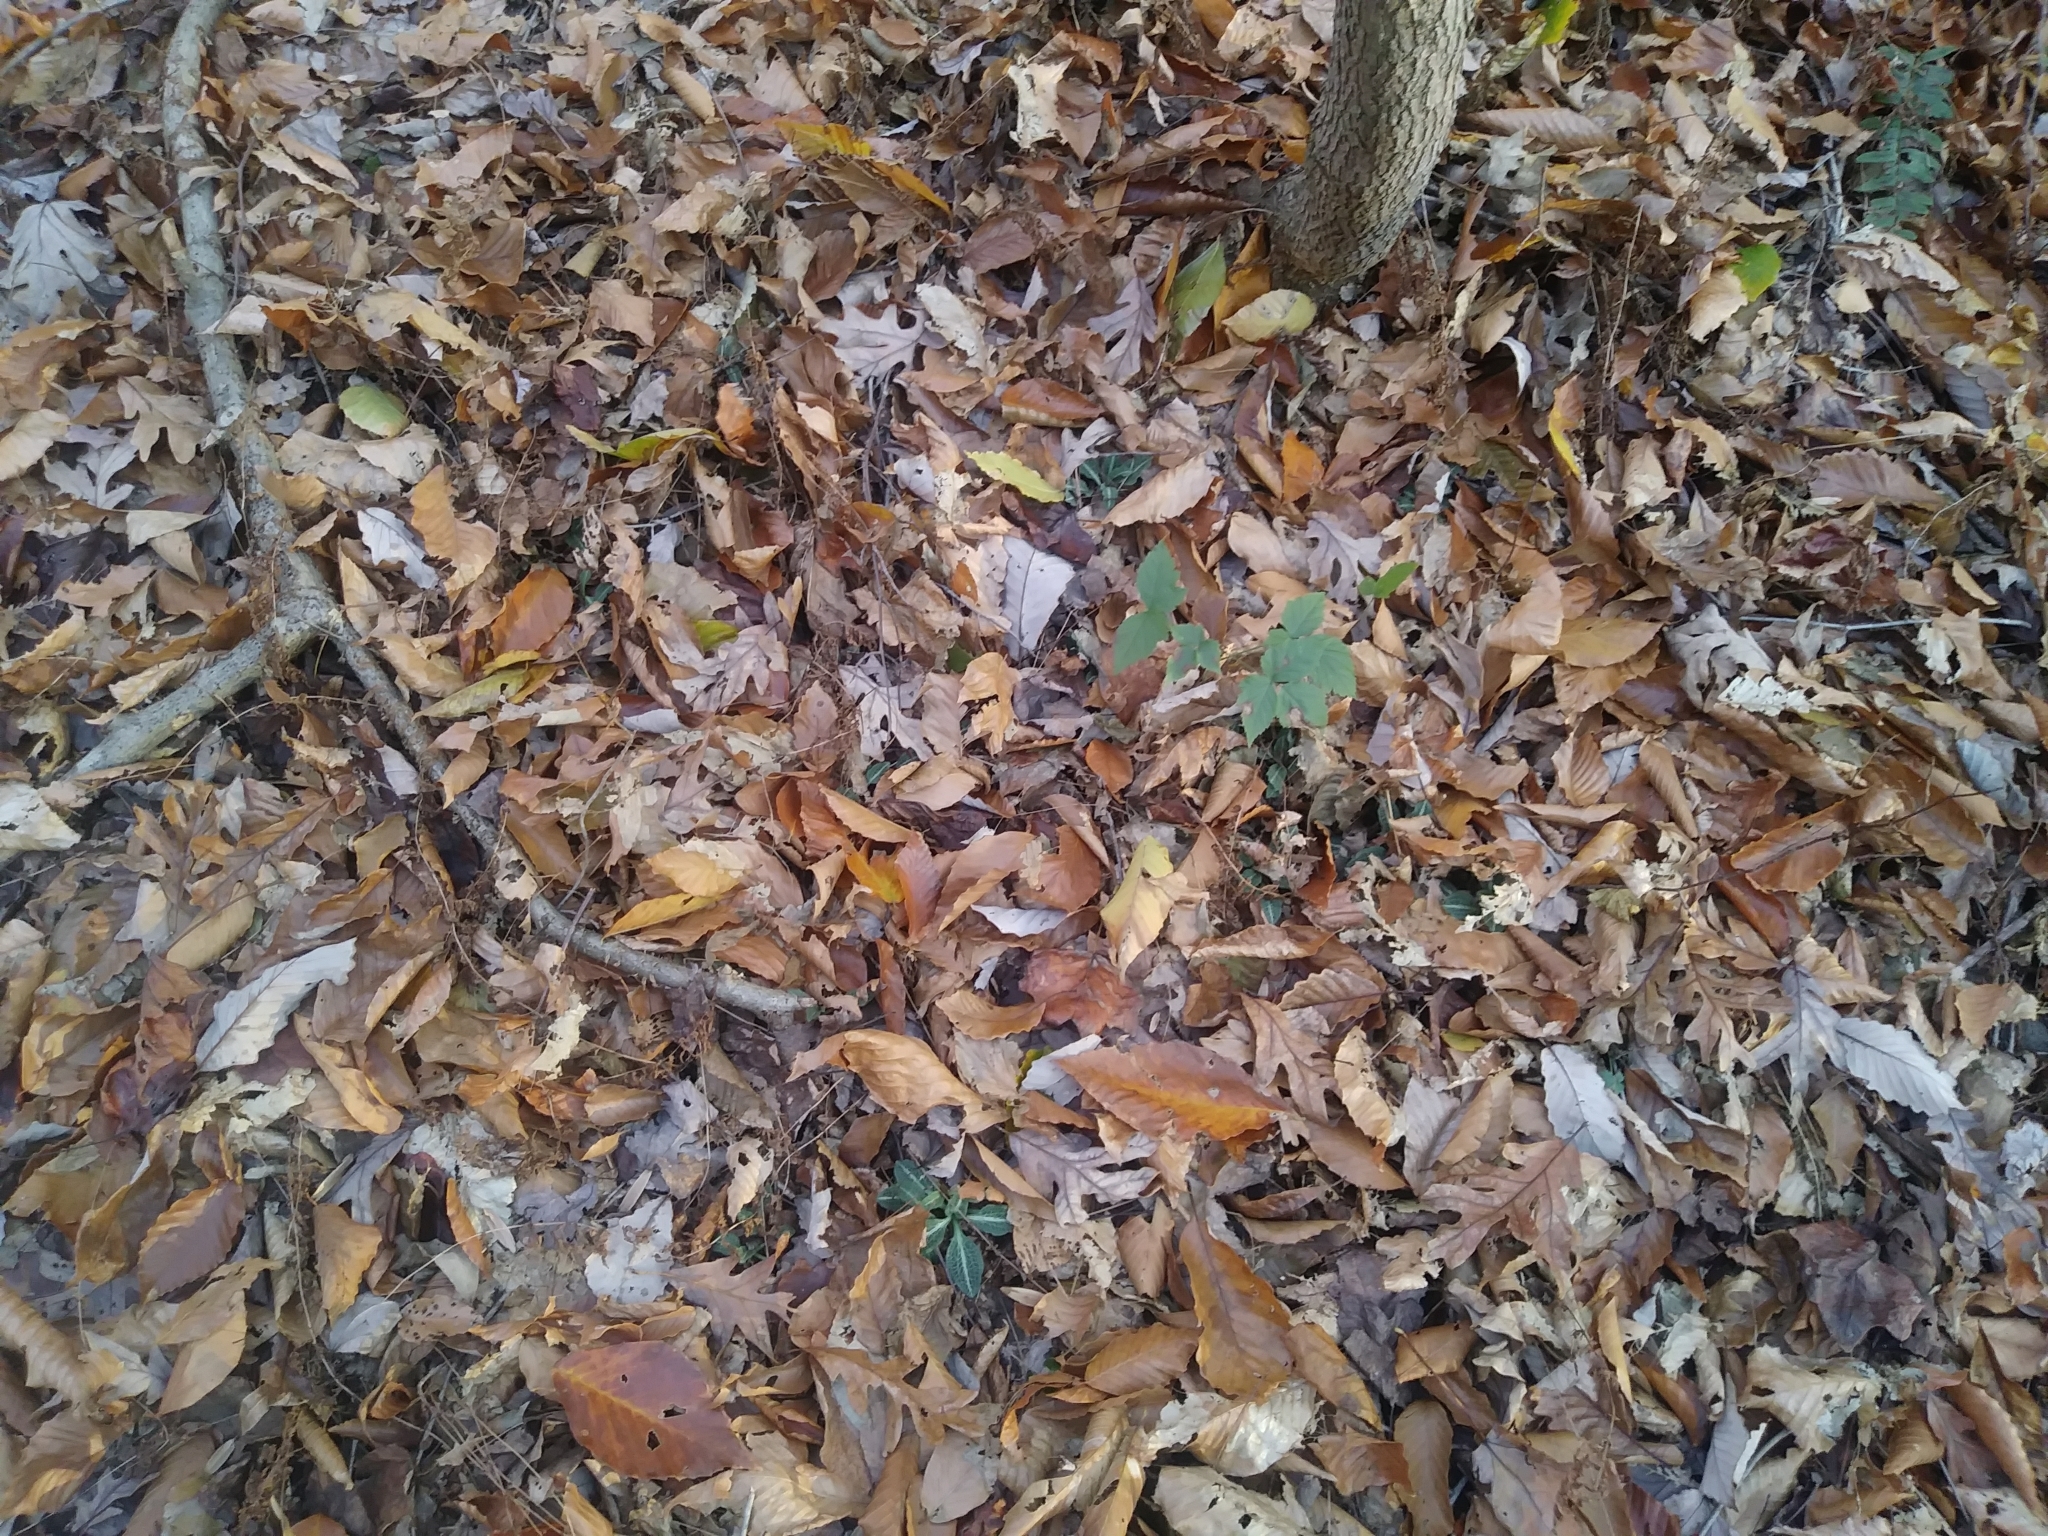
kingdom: Plantae
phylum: Tracheophyta
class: Liliopsida
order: Asparagales
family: Orchidaceae
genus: Goodyera
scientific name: Goodyera pubescens
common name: Downy rattlesnake-plantain
